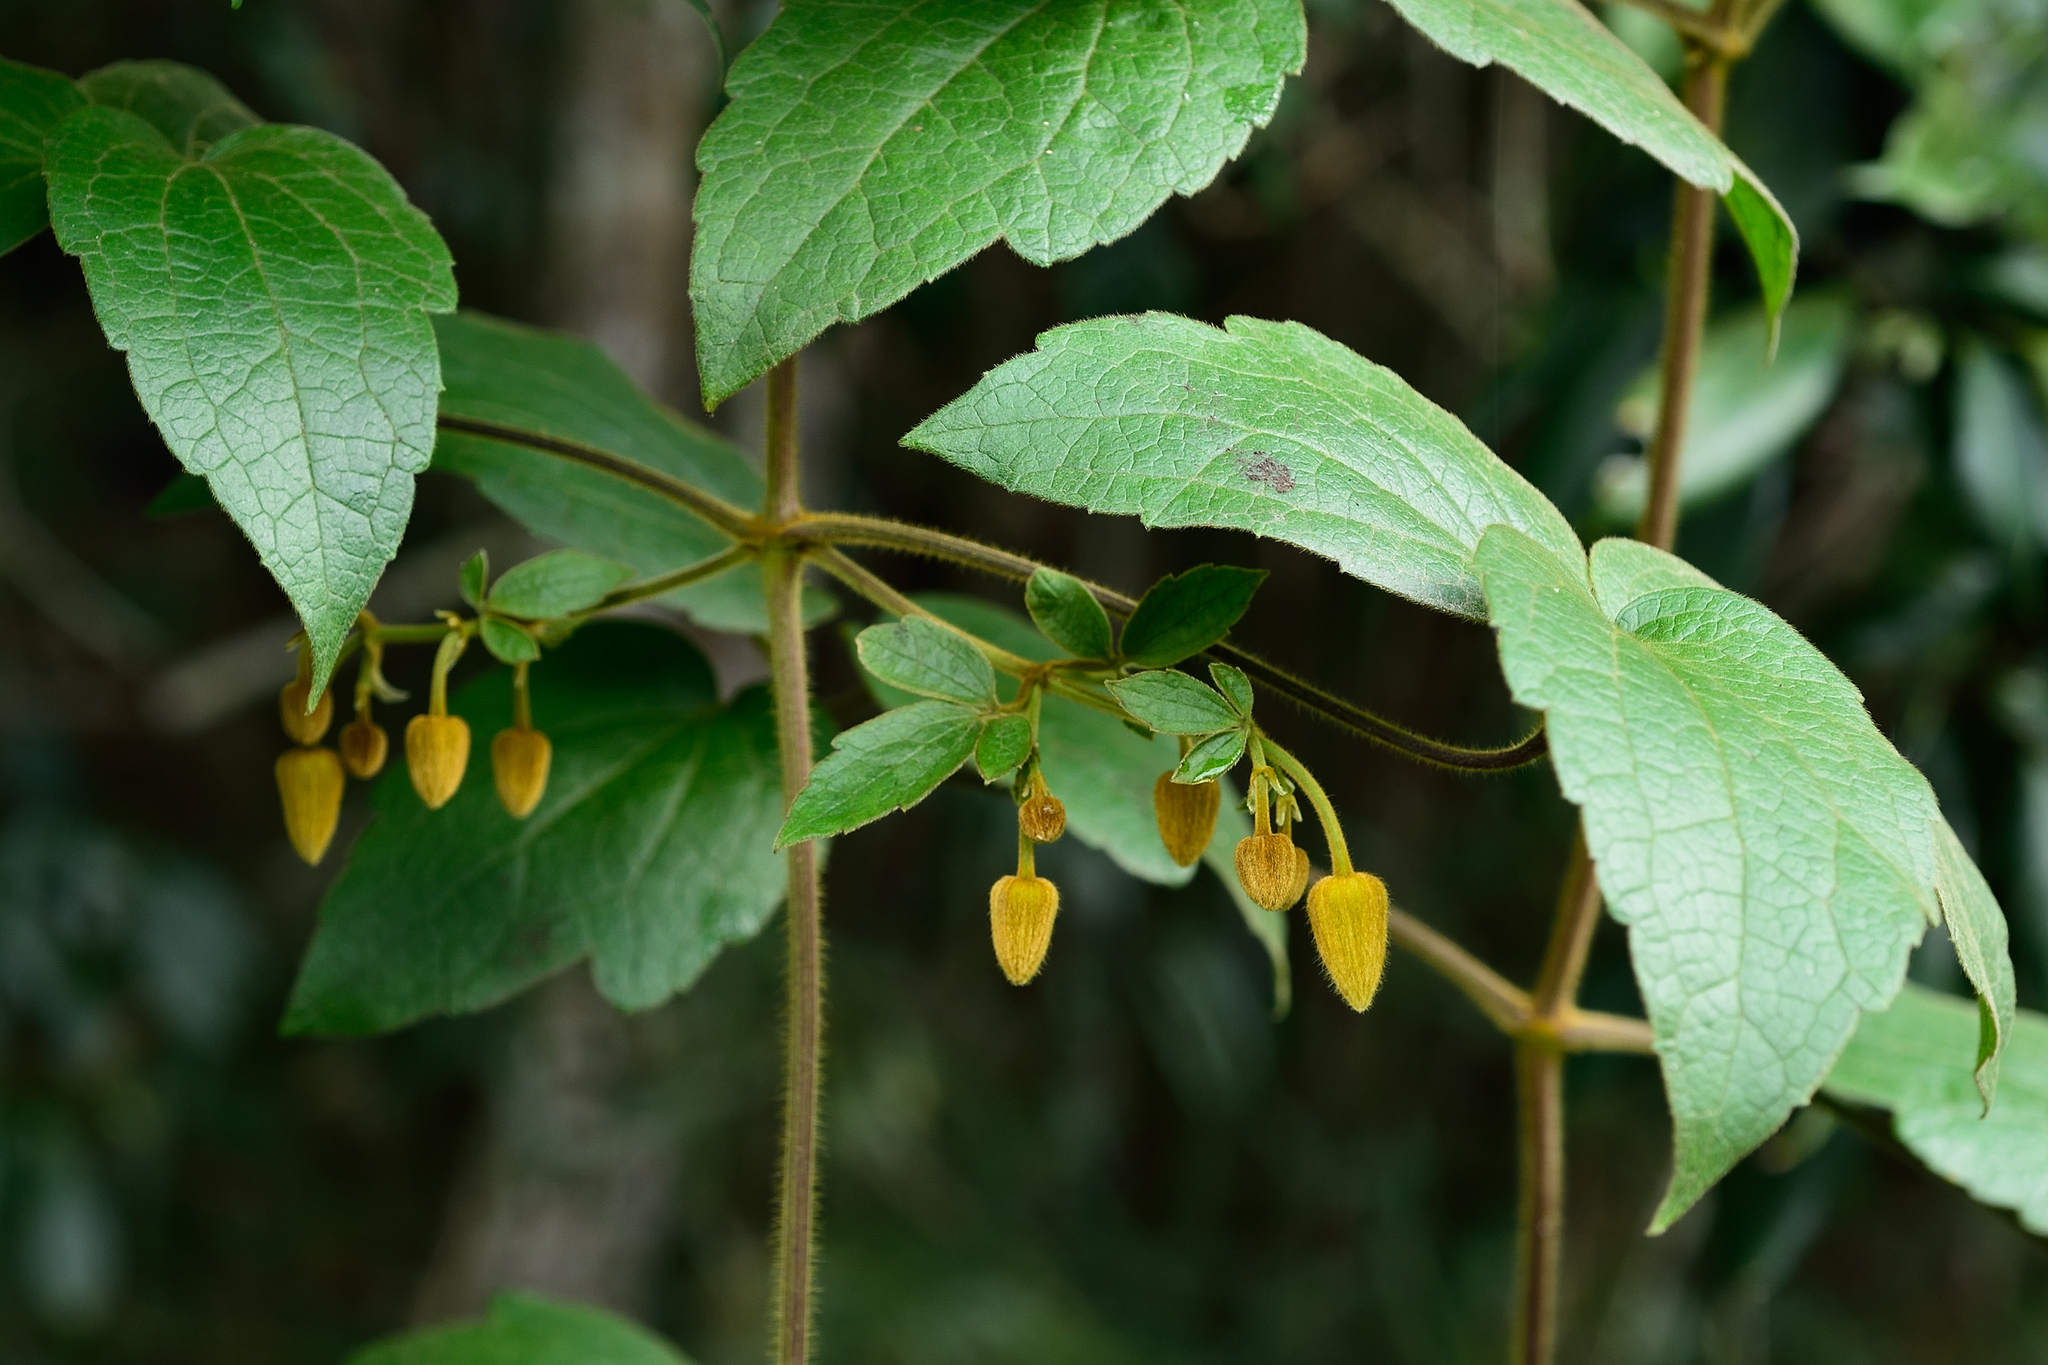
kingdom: Plantae
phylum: Tracheophyta
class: Magnoliopsida
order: Ranunculales
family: Ranunculaceae
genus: Clematis
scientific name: Clematis leschenaultiana
